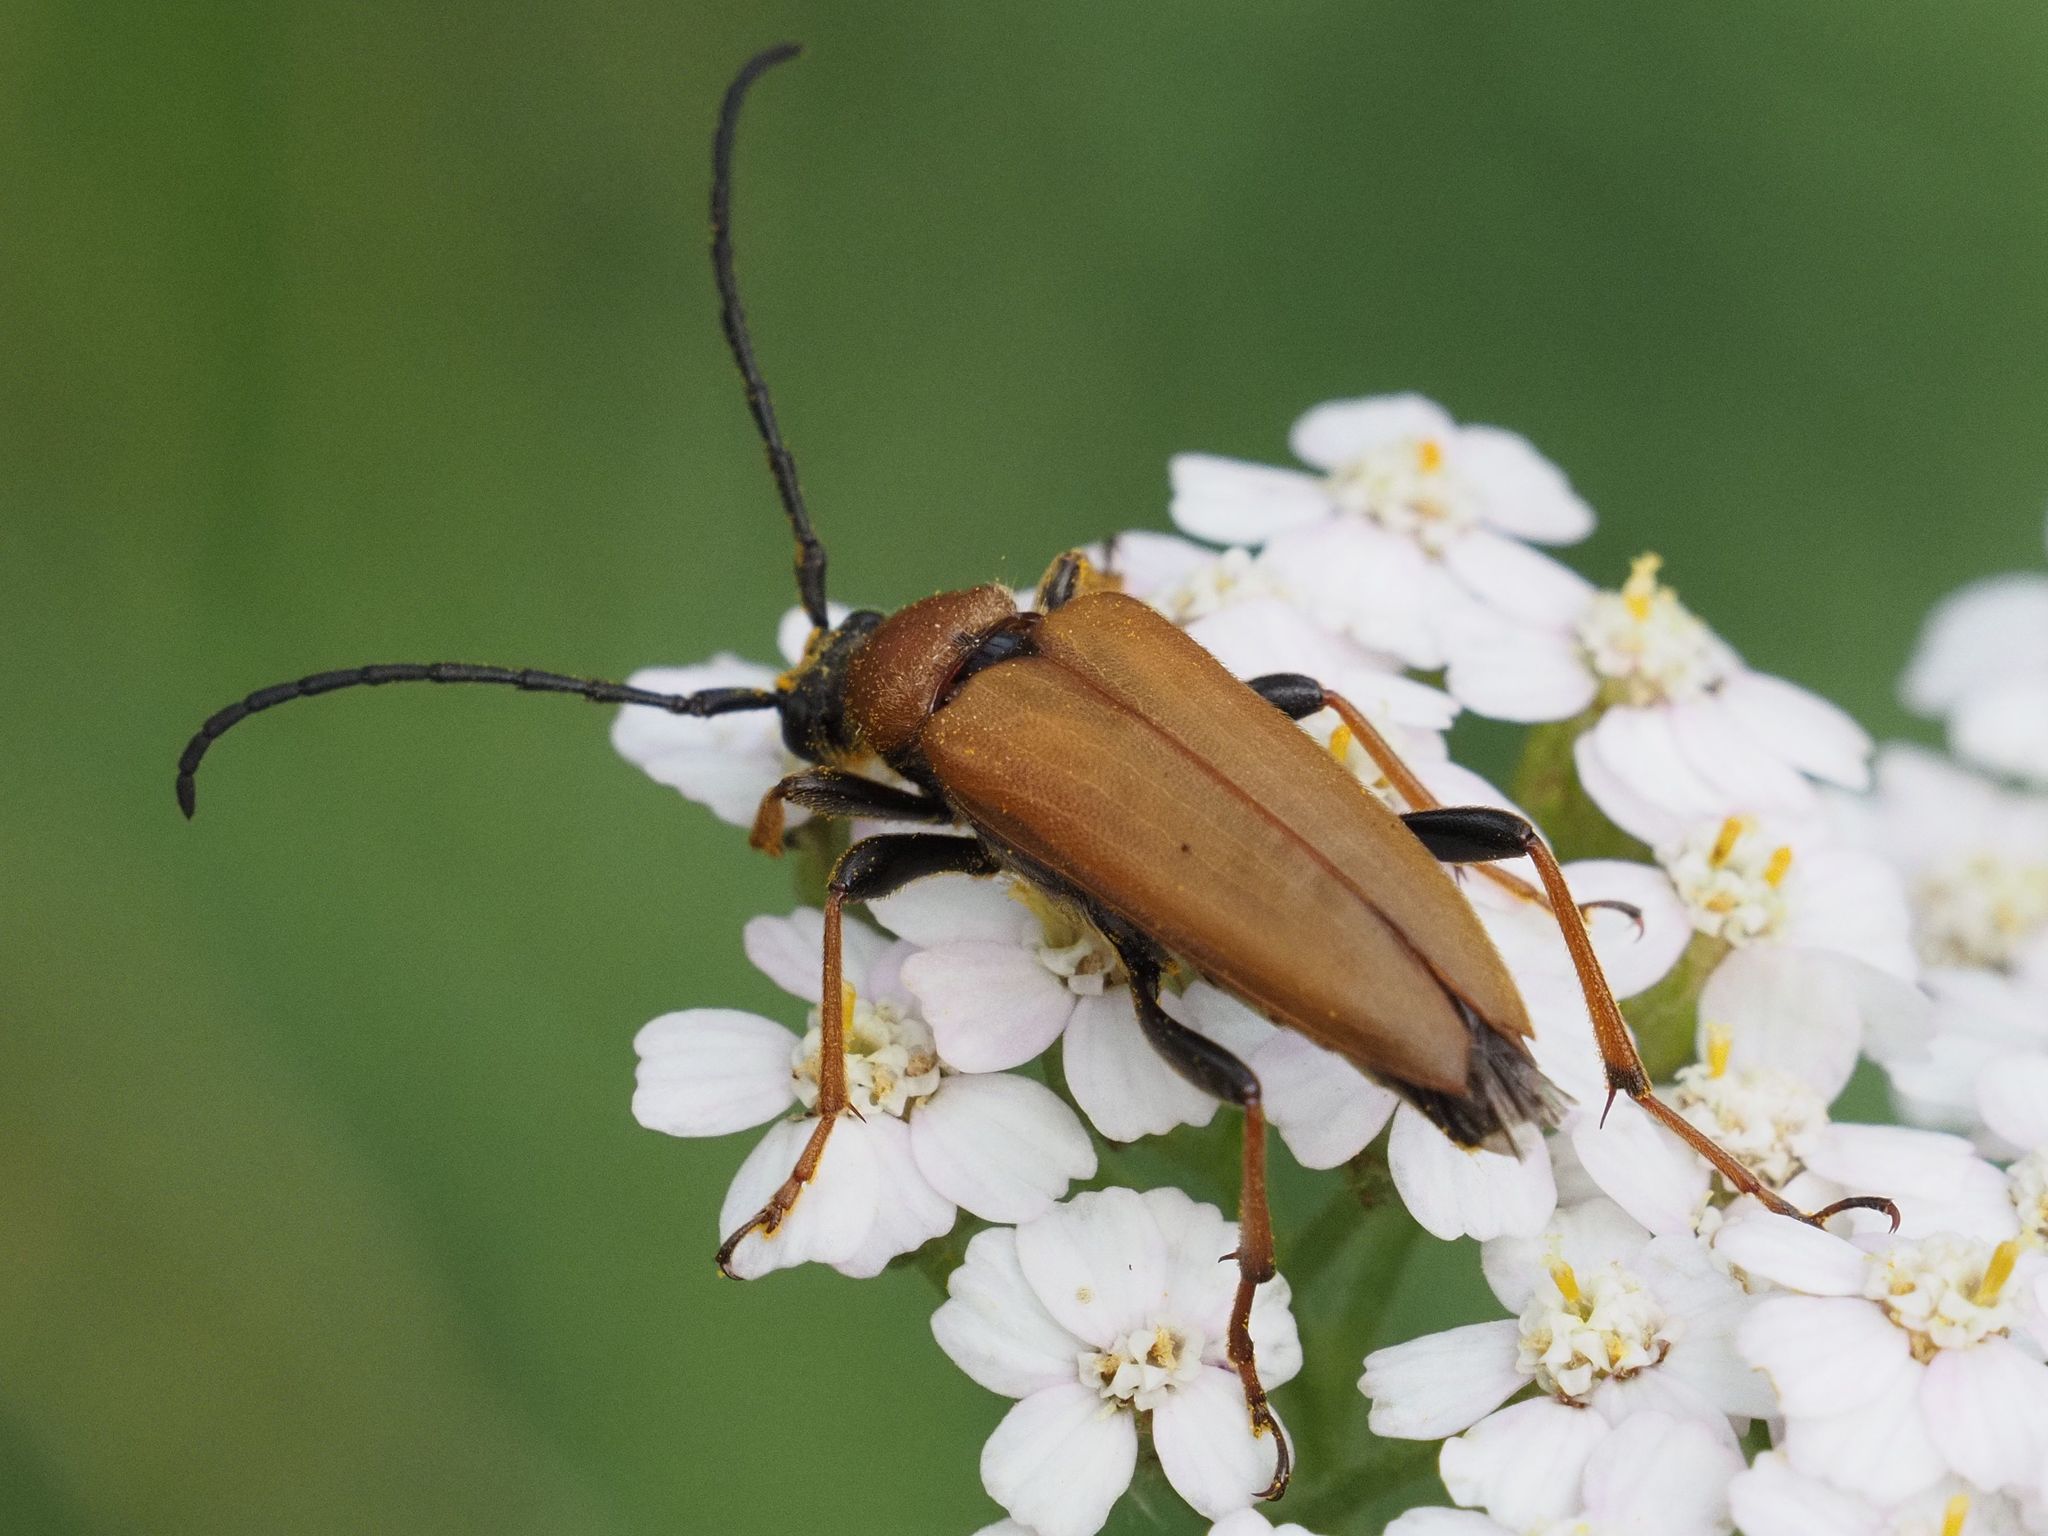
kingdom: Animalia
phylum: Arthropoda
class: Insecta
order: Coleoptera
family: Cerambycidae
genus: Stictoleptura
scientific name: Stictoleptura rubra
